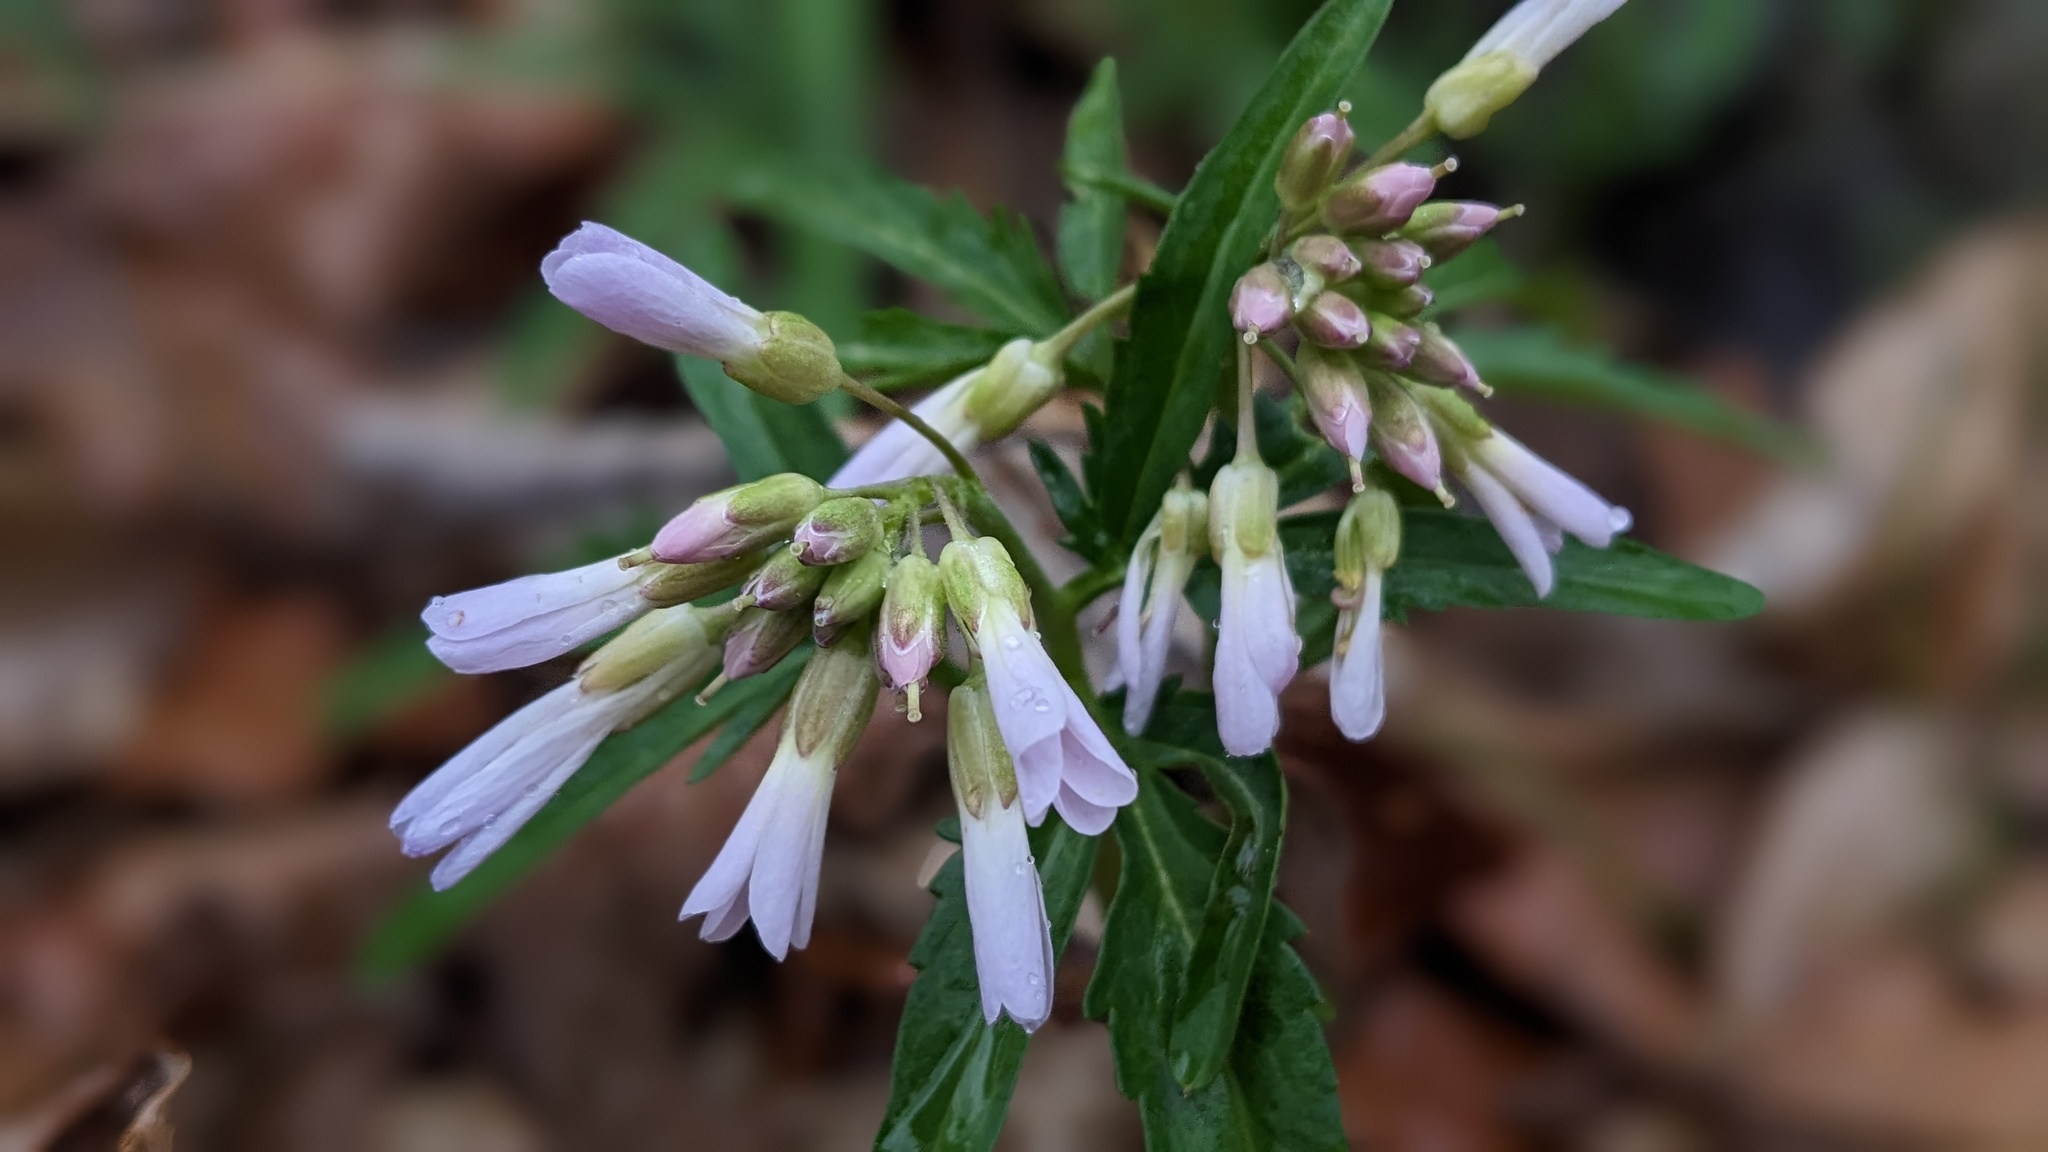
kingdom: Plantae
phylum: Tracheophyta
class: Magnoliopsida
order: Brassicales
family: Brassicaceae
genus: Cardamine
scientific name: Cardamine concatenata
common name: Cut-leaf toothcup
